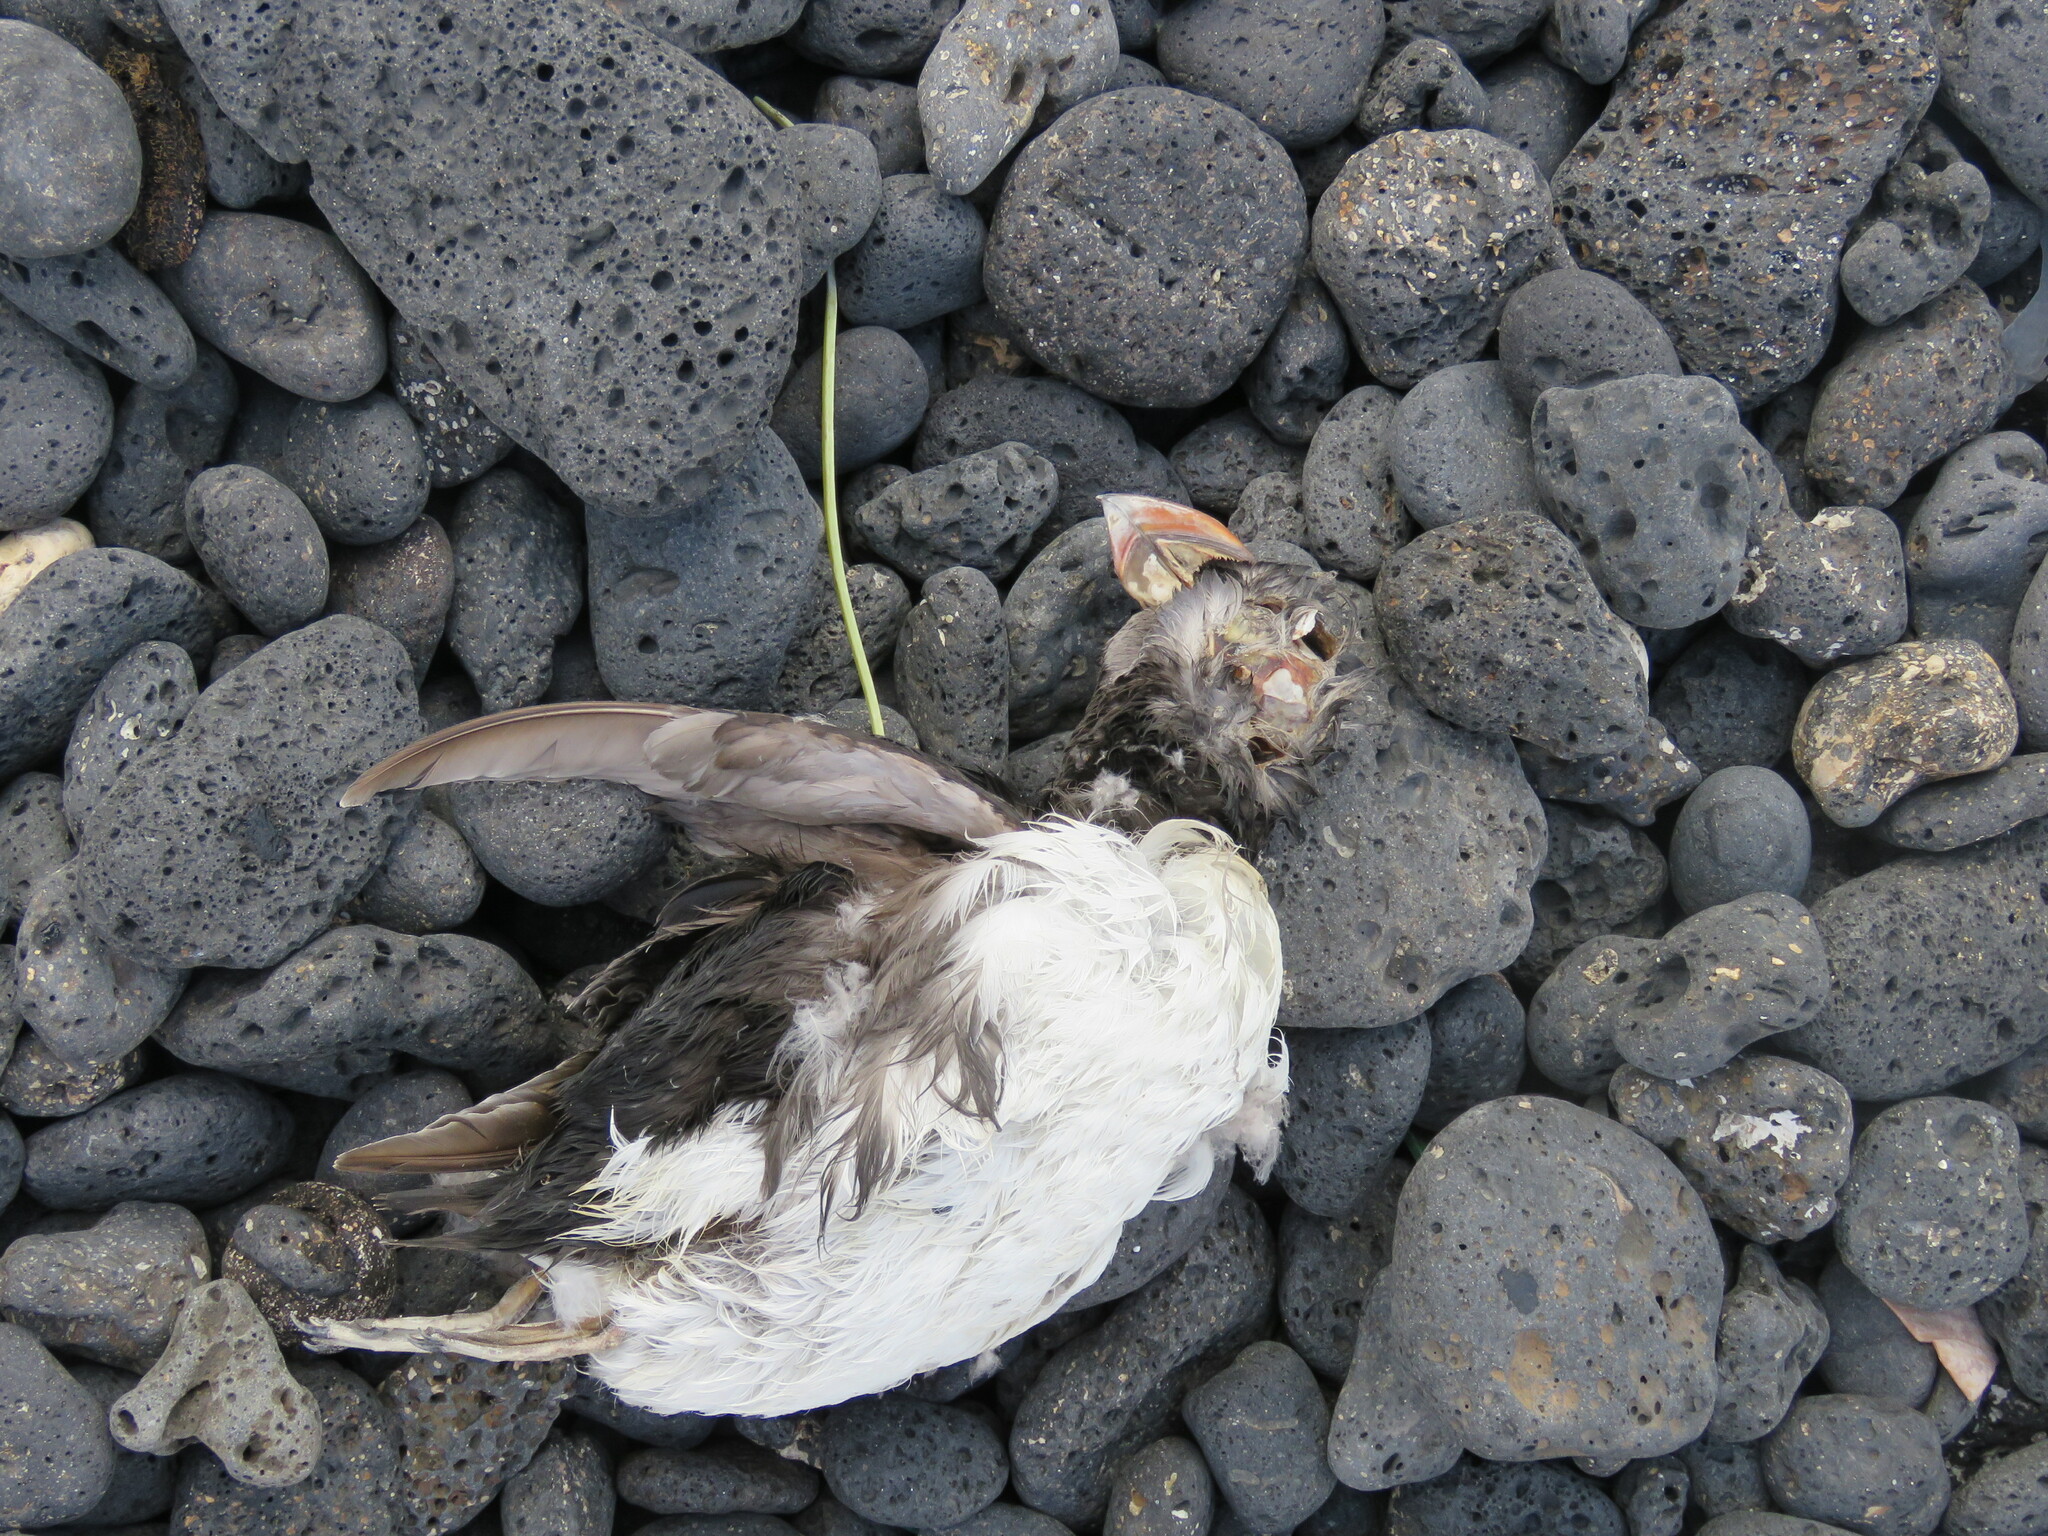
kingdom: Animalia
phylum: Chordata
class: Aves
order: Charadriiformes
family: Alcidae
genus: Fratercula
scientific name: Fratercula arctica
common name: Atlantic puffin
